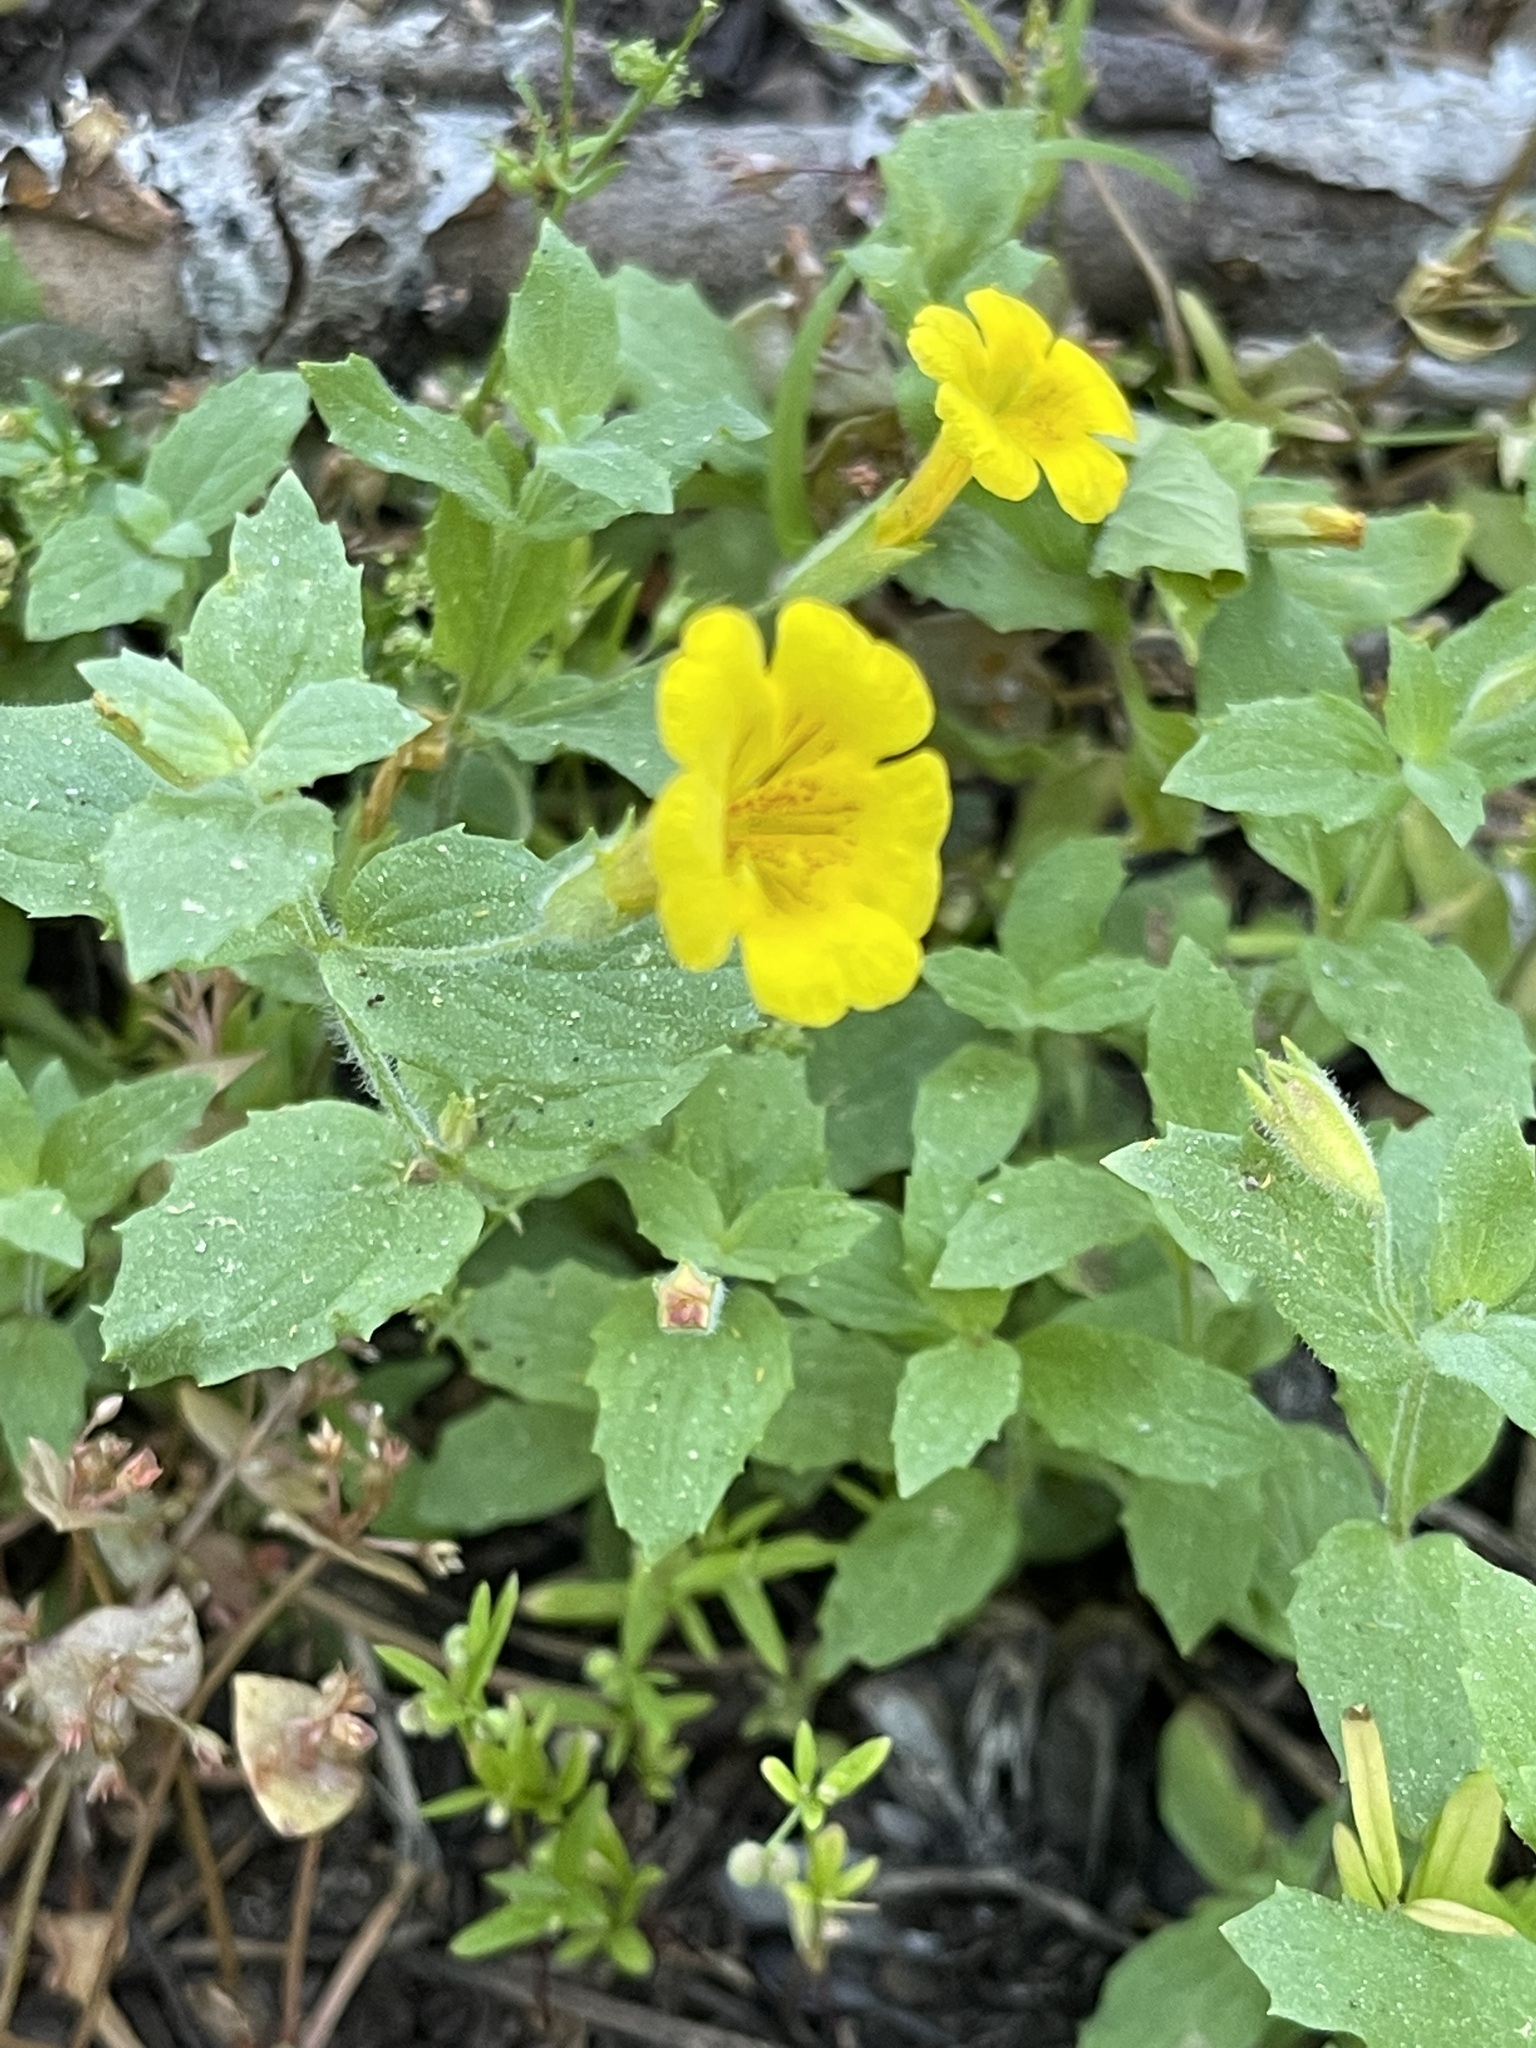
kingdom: Plantae
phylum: Tracheophyta
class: Magnoliopsida
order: Lamiales
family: Phrymaceae
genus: Erythranthe
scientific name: Erythranthe moschata
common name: Muskflower
